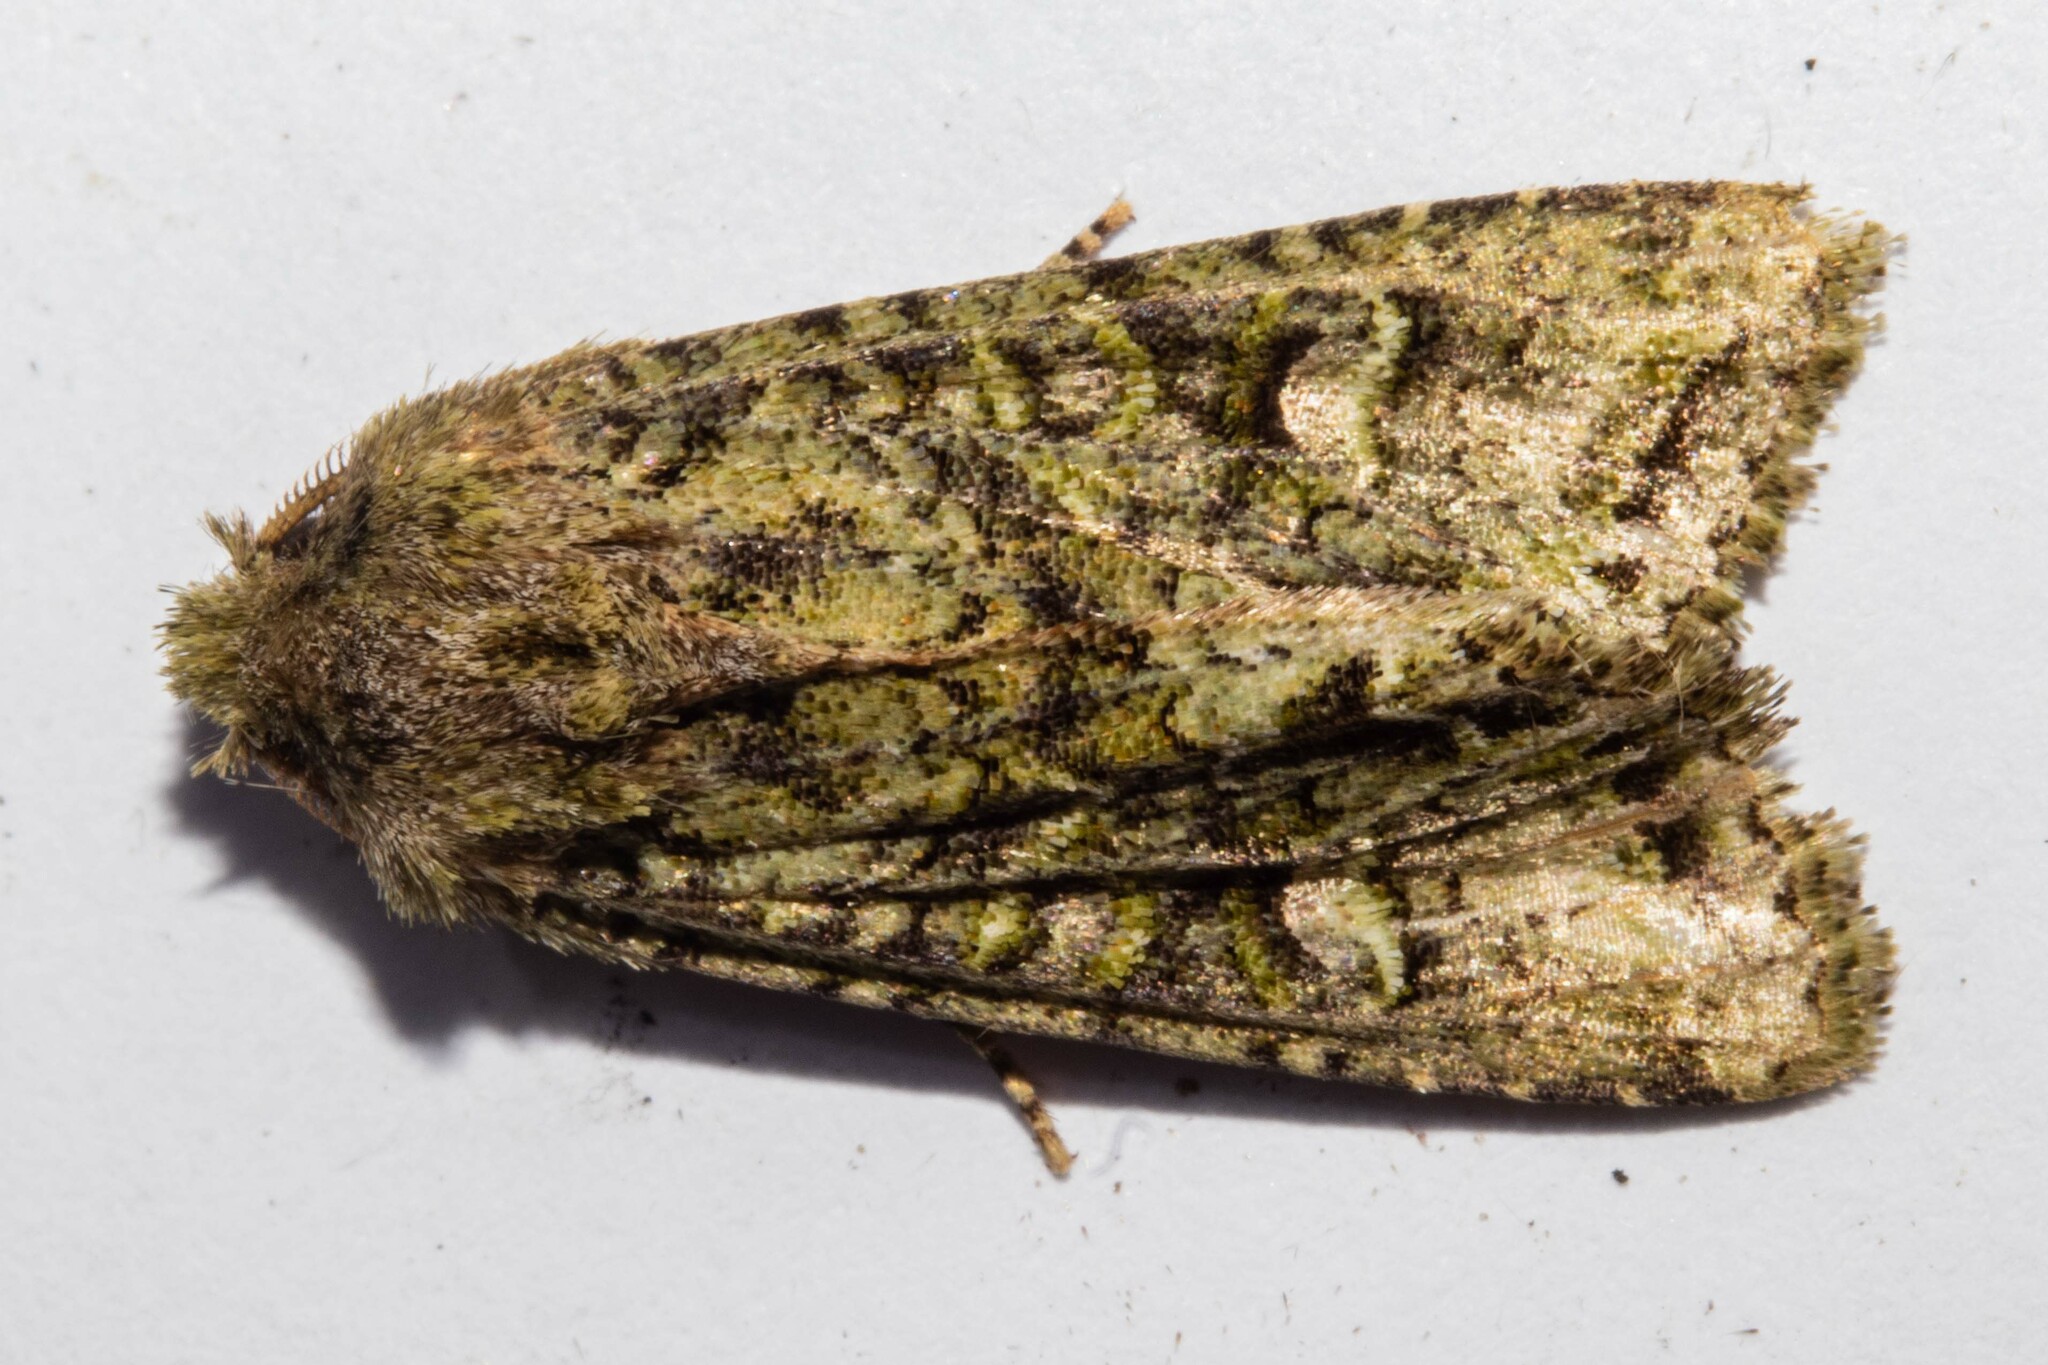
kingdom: Animalia
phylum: Arthropoda
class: Insecta
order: Lepidoptera
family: Noctuidae
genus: Ichneutica
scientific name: Ichneutica
